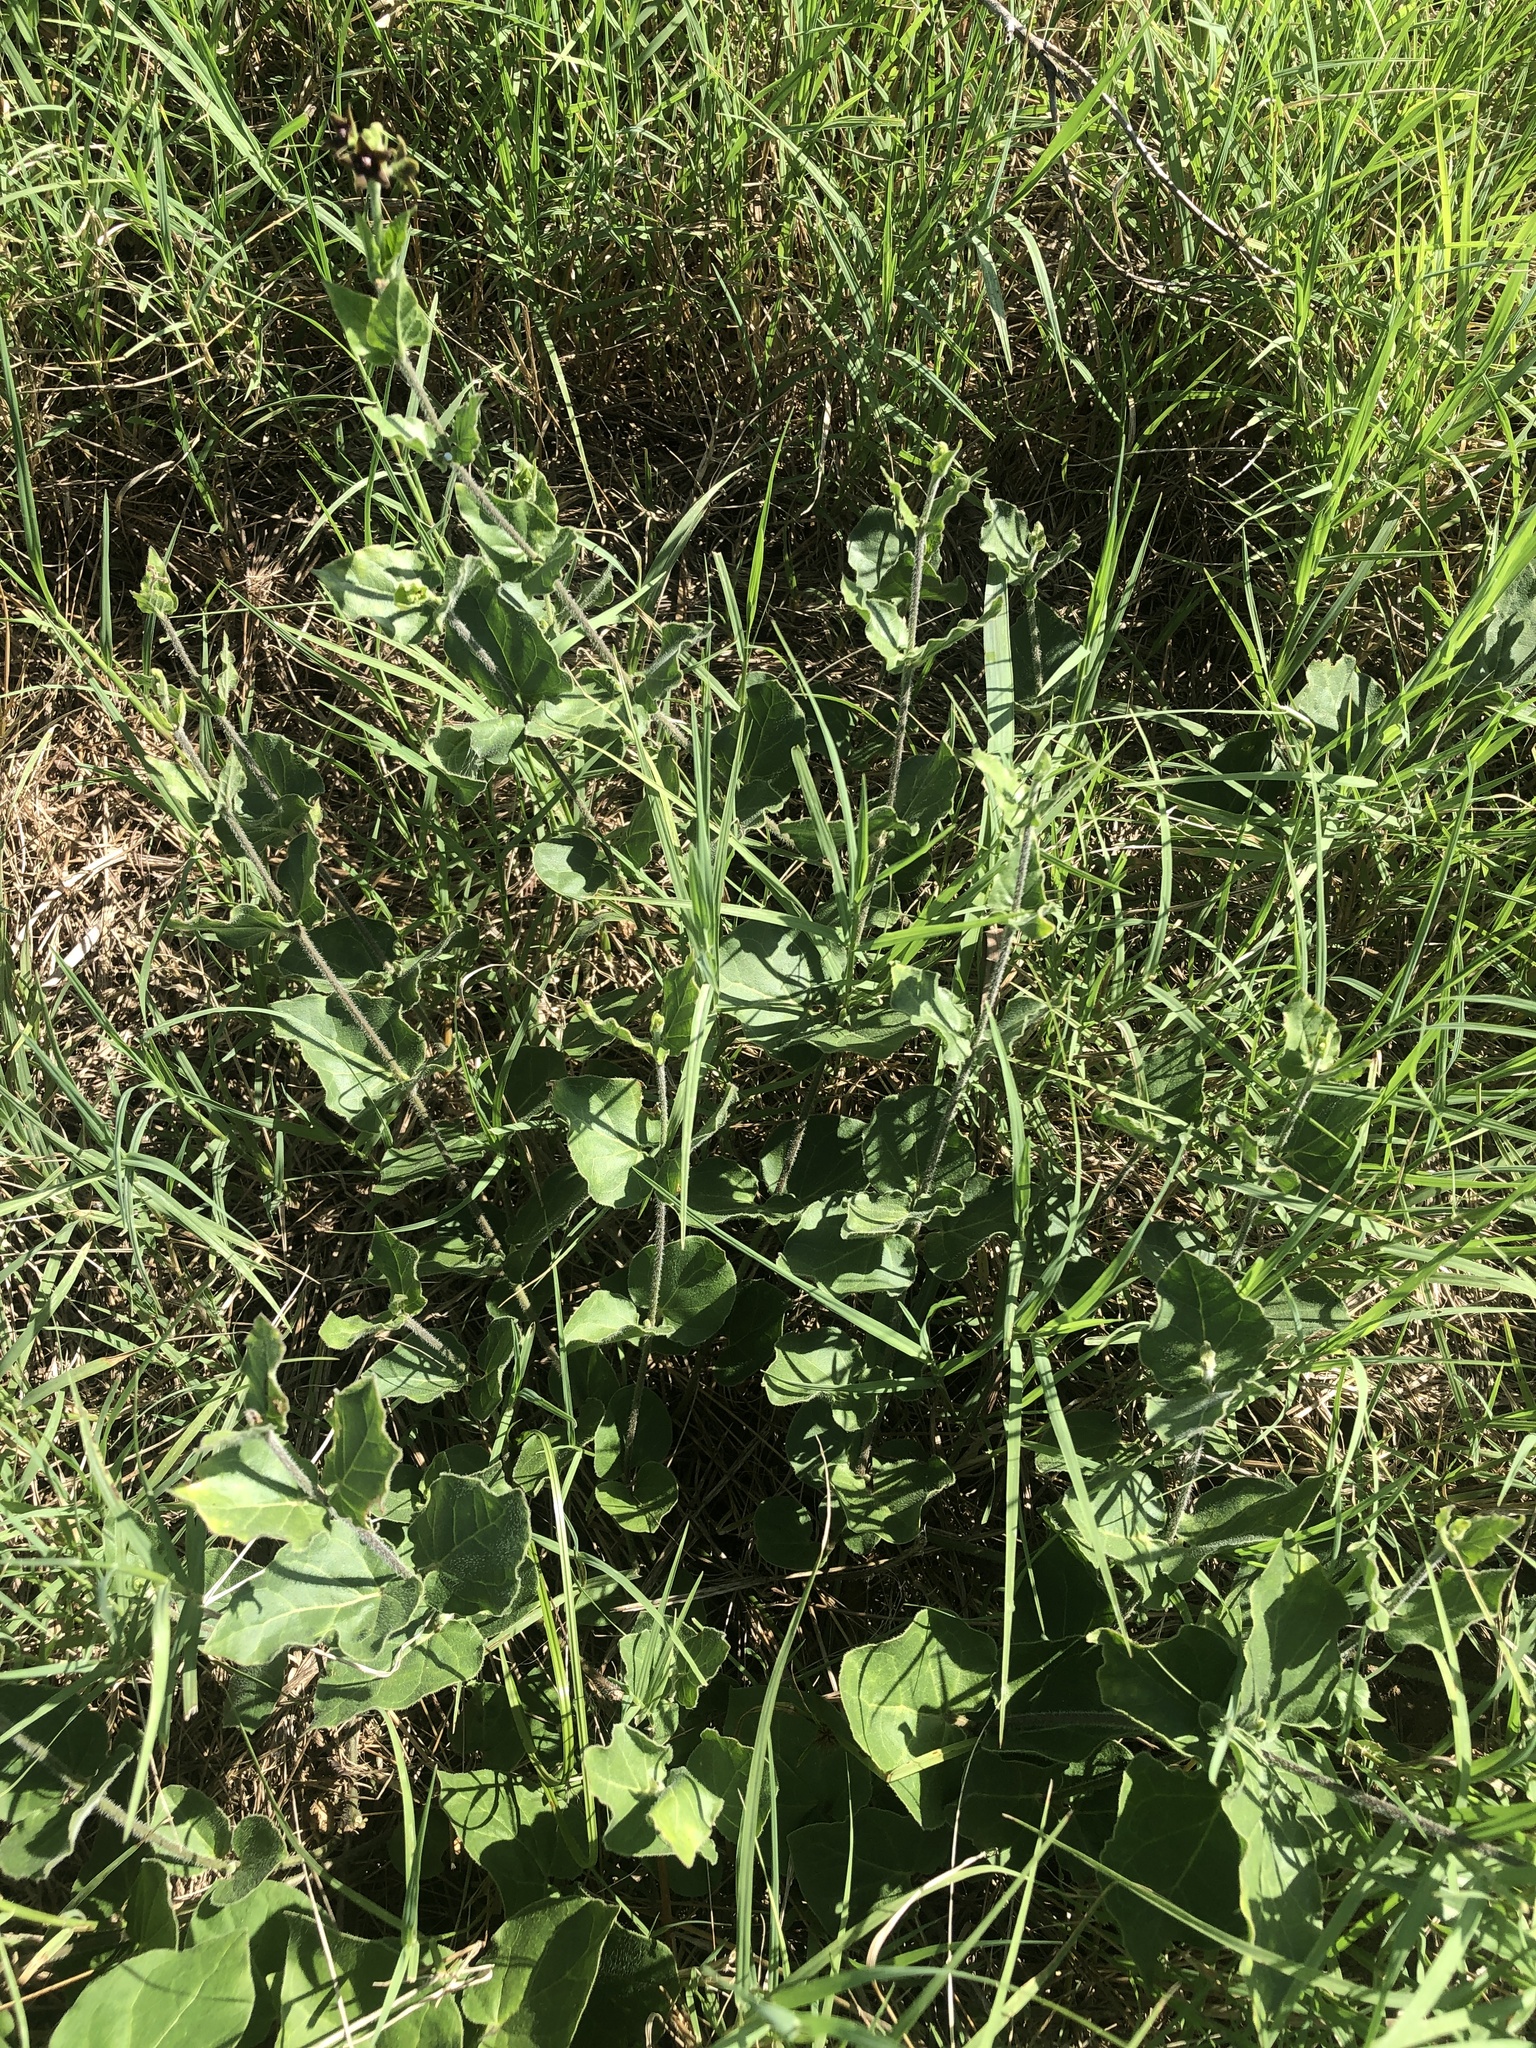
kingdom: Plantae
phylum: Tracheophyta
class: Magnoliopsida
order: Gentianales
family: Apocynaceae
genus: Matelea
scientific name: Matelea cynanchoides
